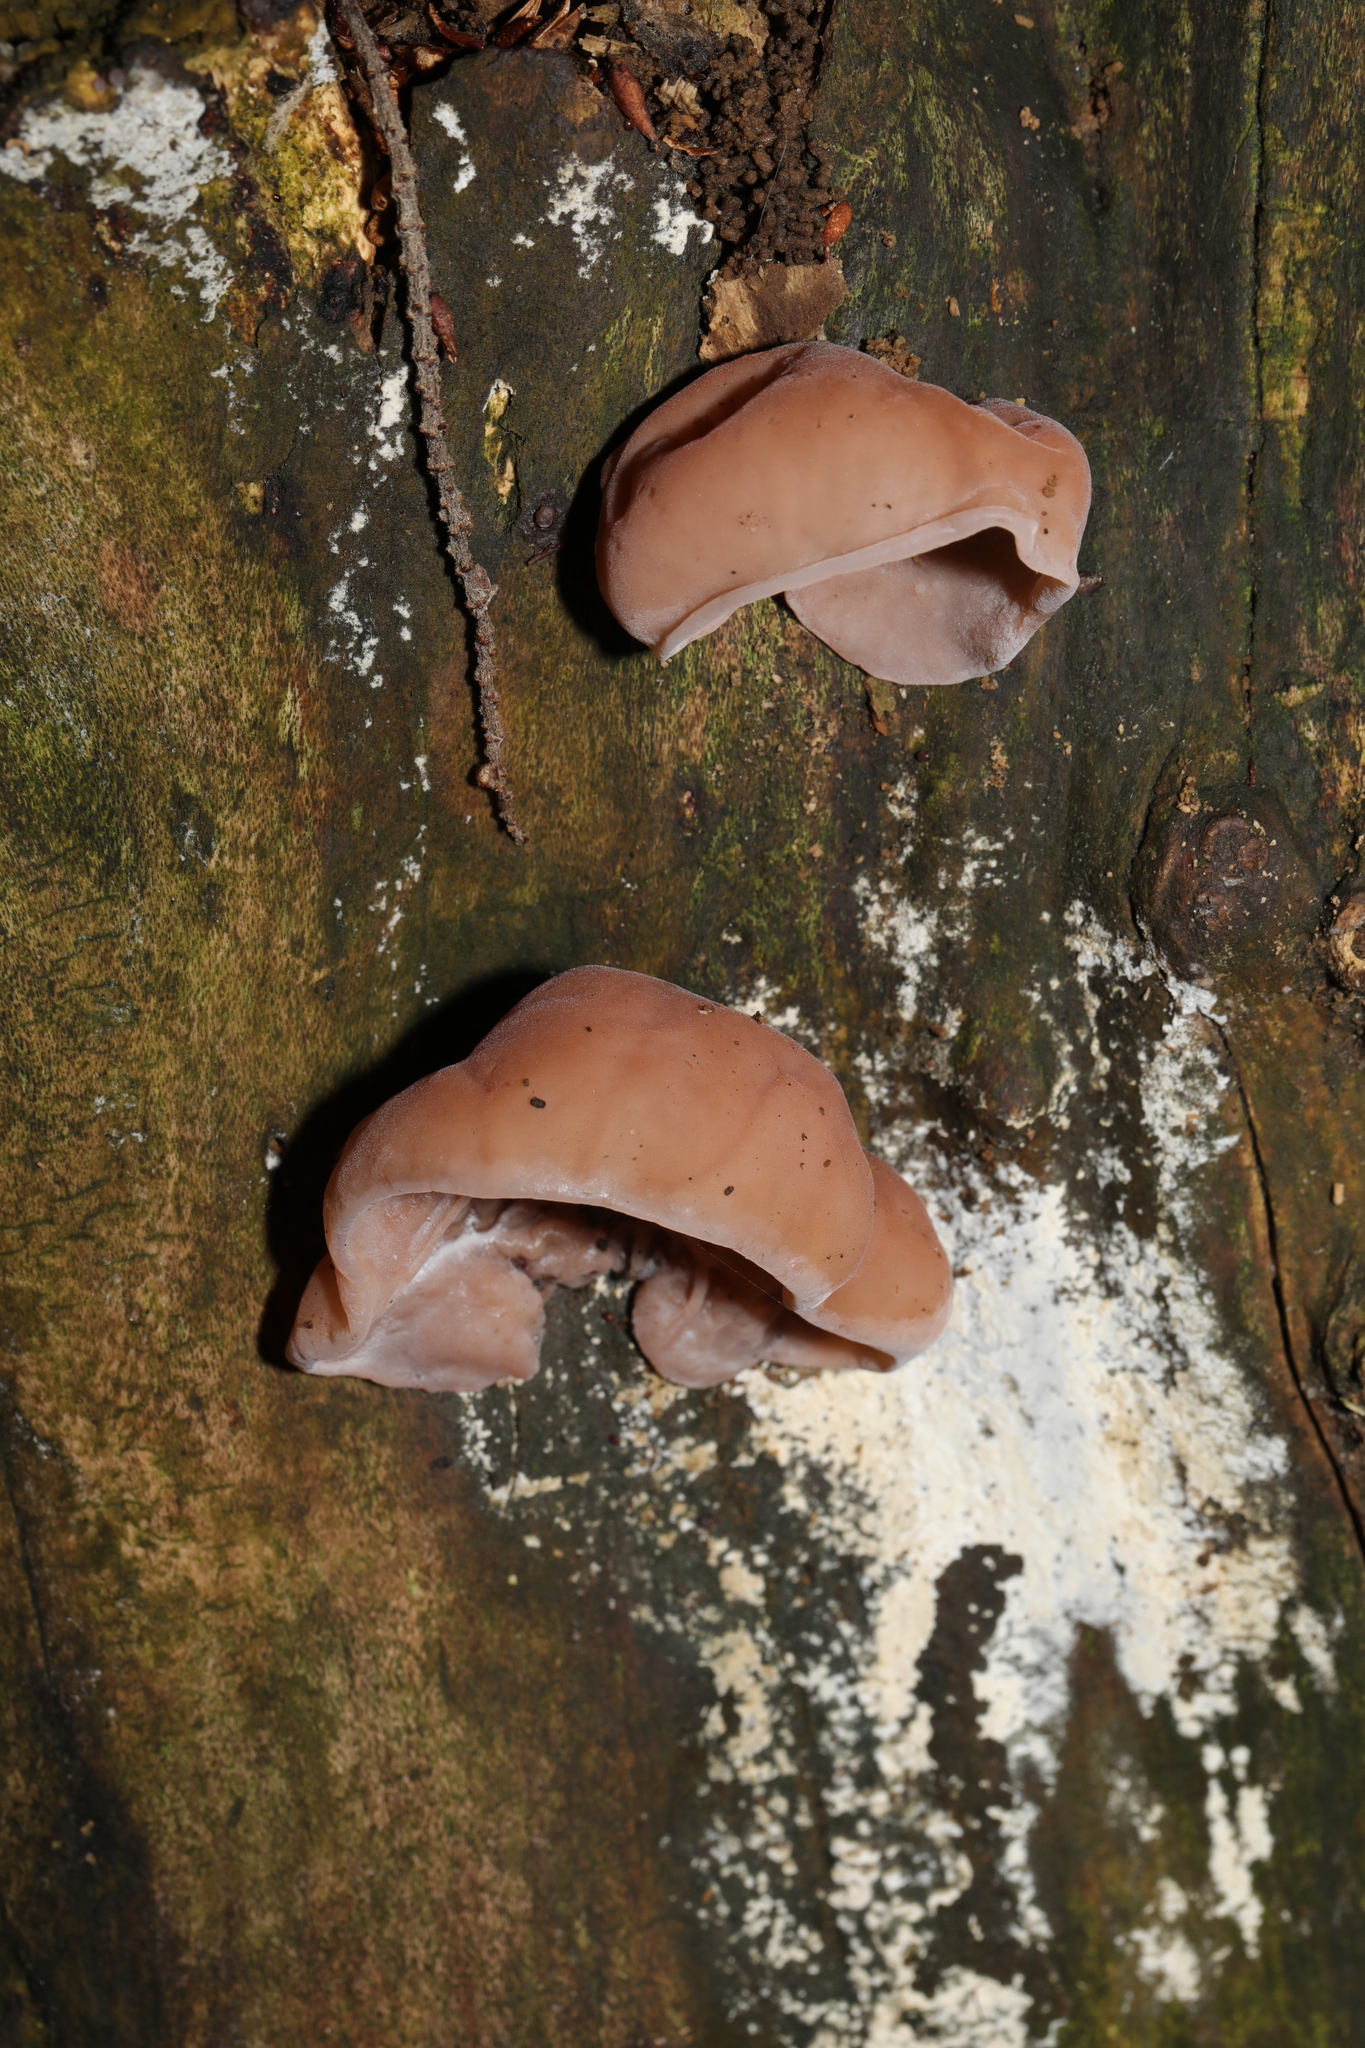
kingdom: Fungi
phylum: Basidiomycota
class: Agaricomycetes
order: Auriculariales
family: Auriculariaceae
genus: Auricularia
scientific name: Auricularia auricula-judae
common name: Jelly ear
